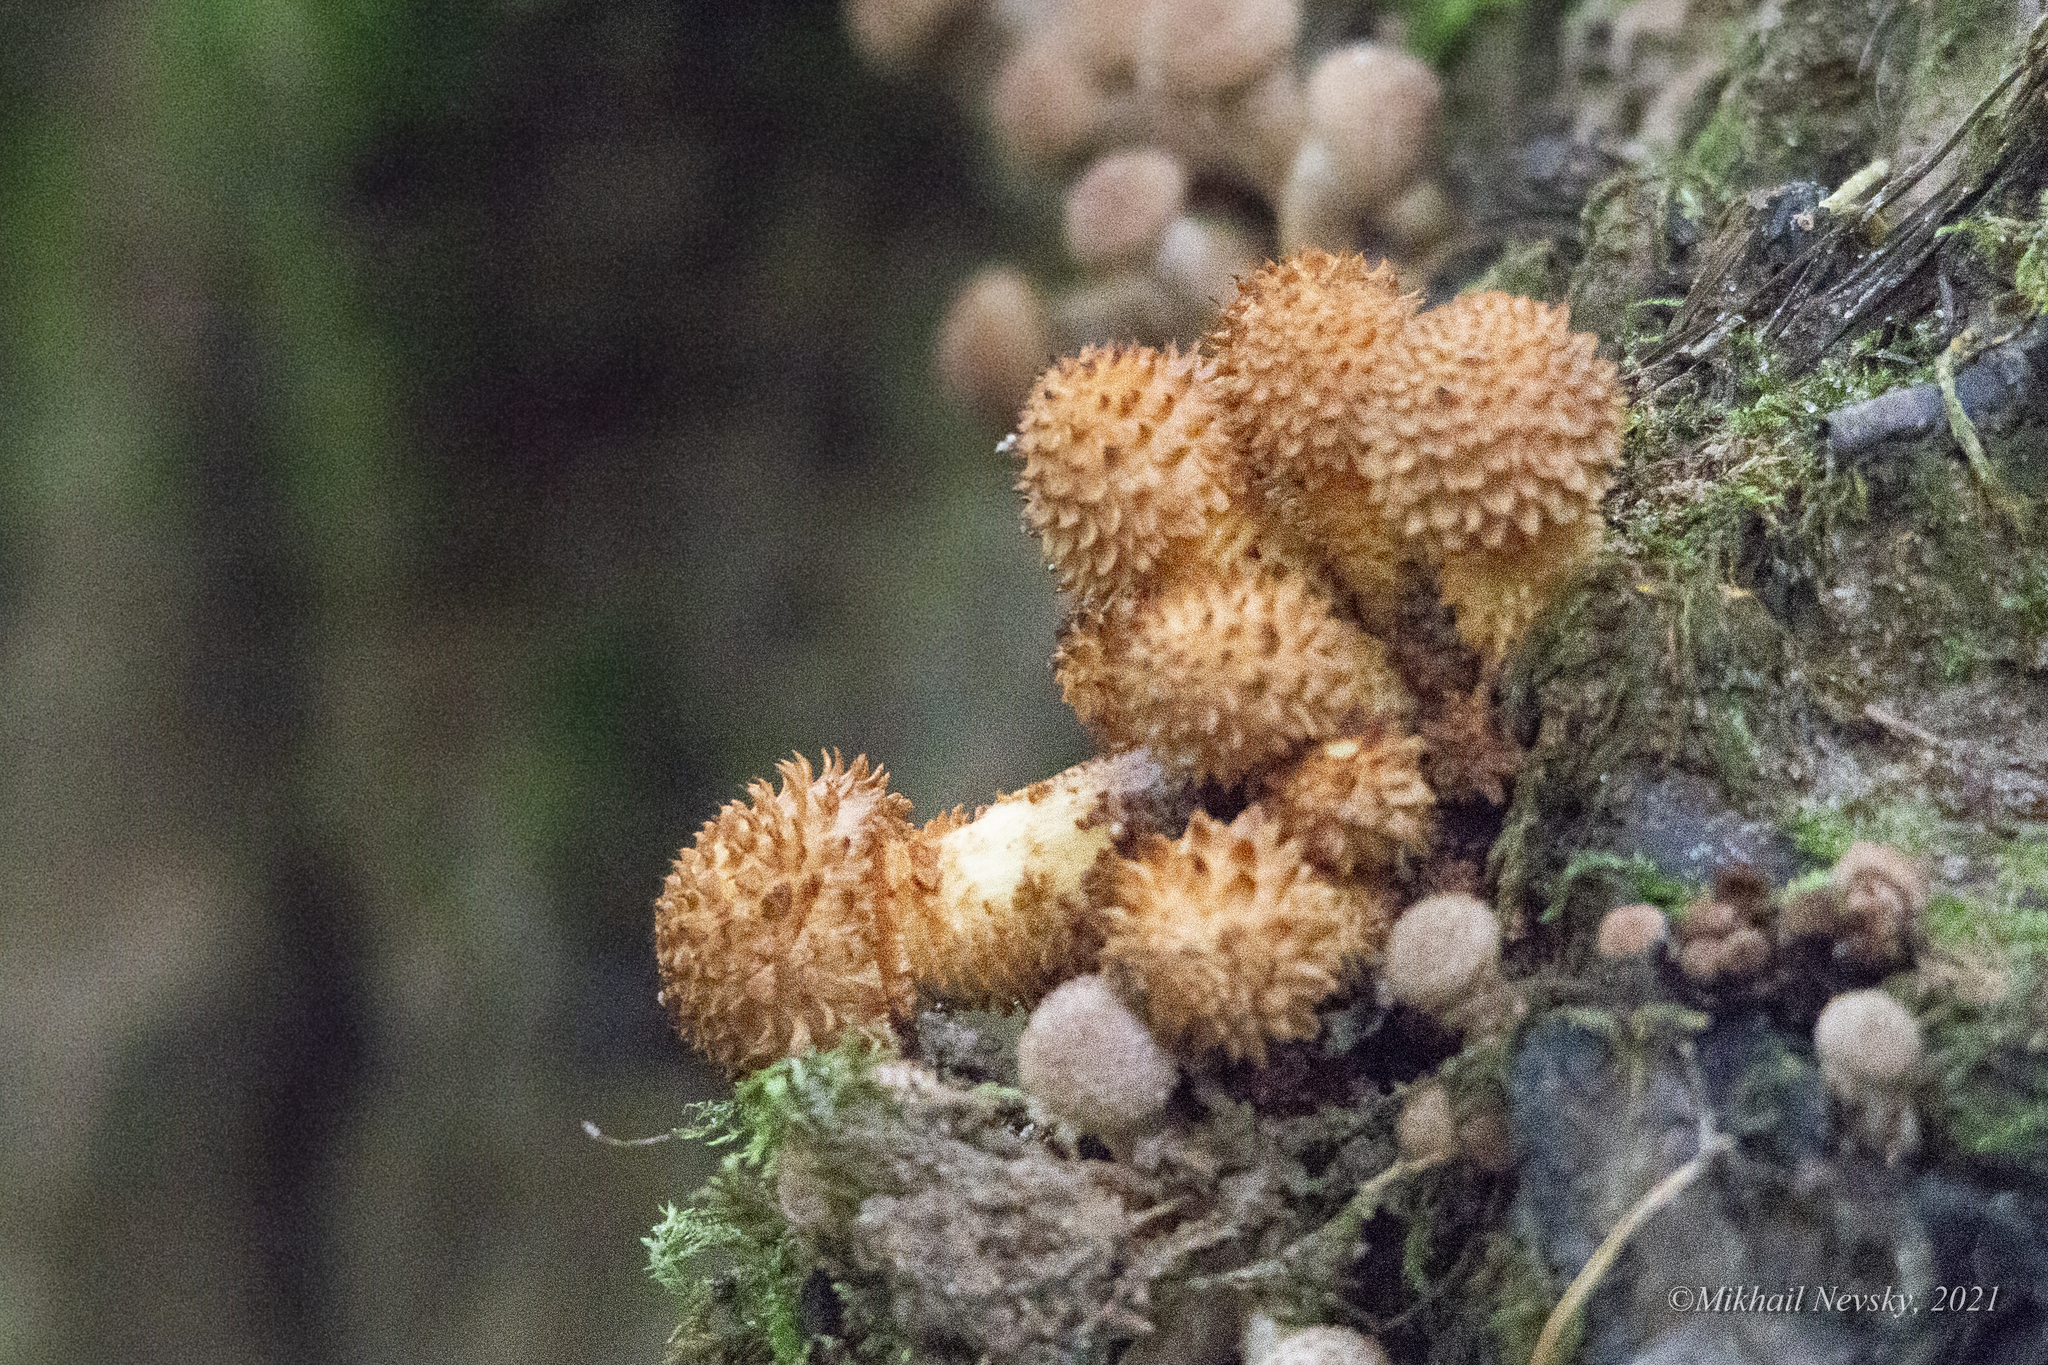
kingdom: Fungi
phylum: Basidiomycota
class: Agaricomycetes
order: Agaricales
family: Strophariaceae
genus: Pholiota
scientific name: Pholiota squarrosa
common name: Shaggy pholiota
